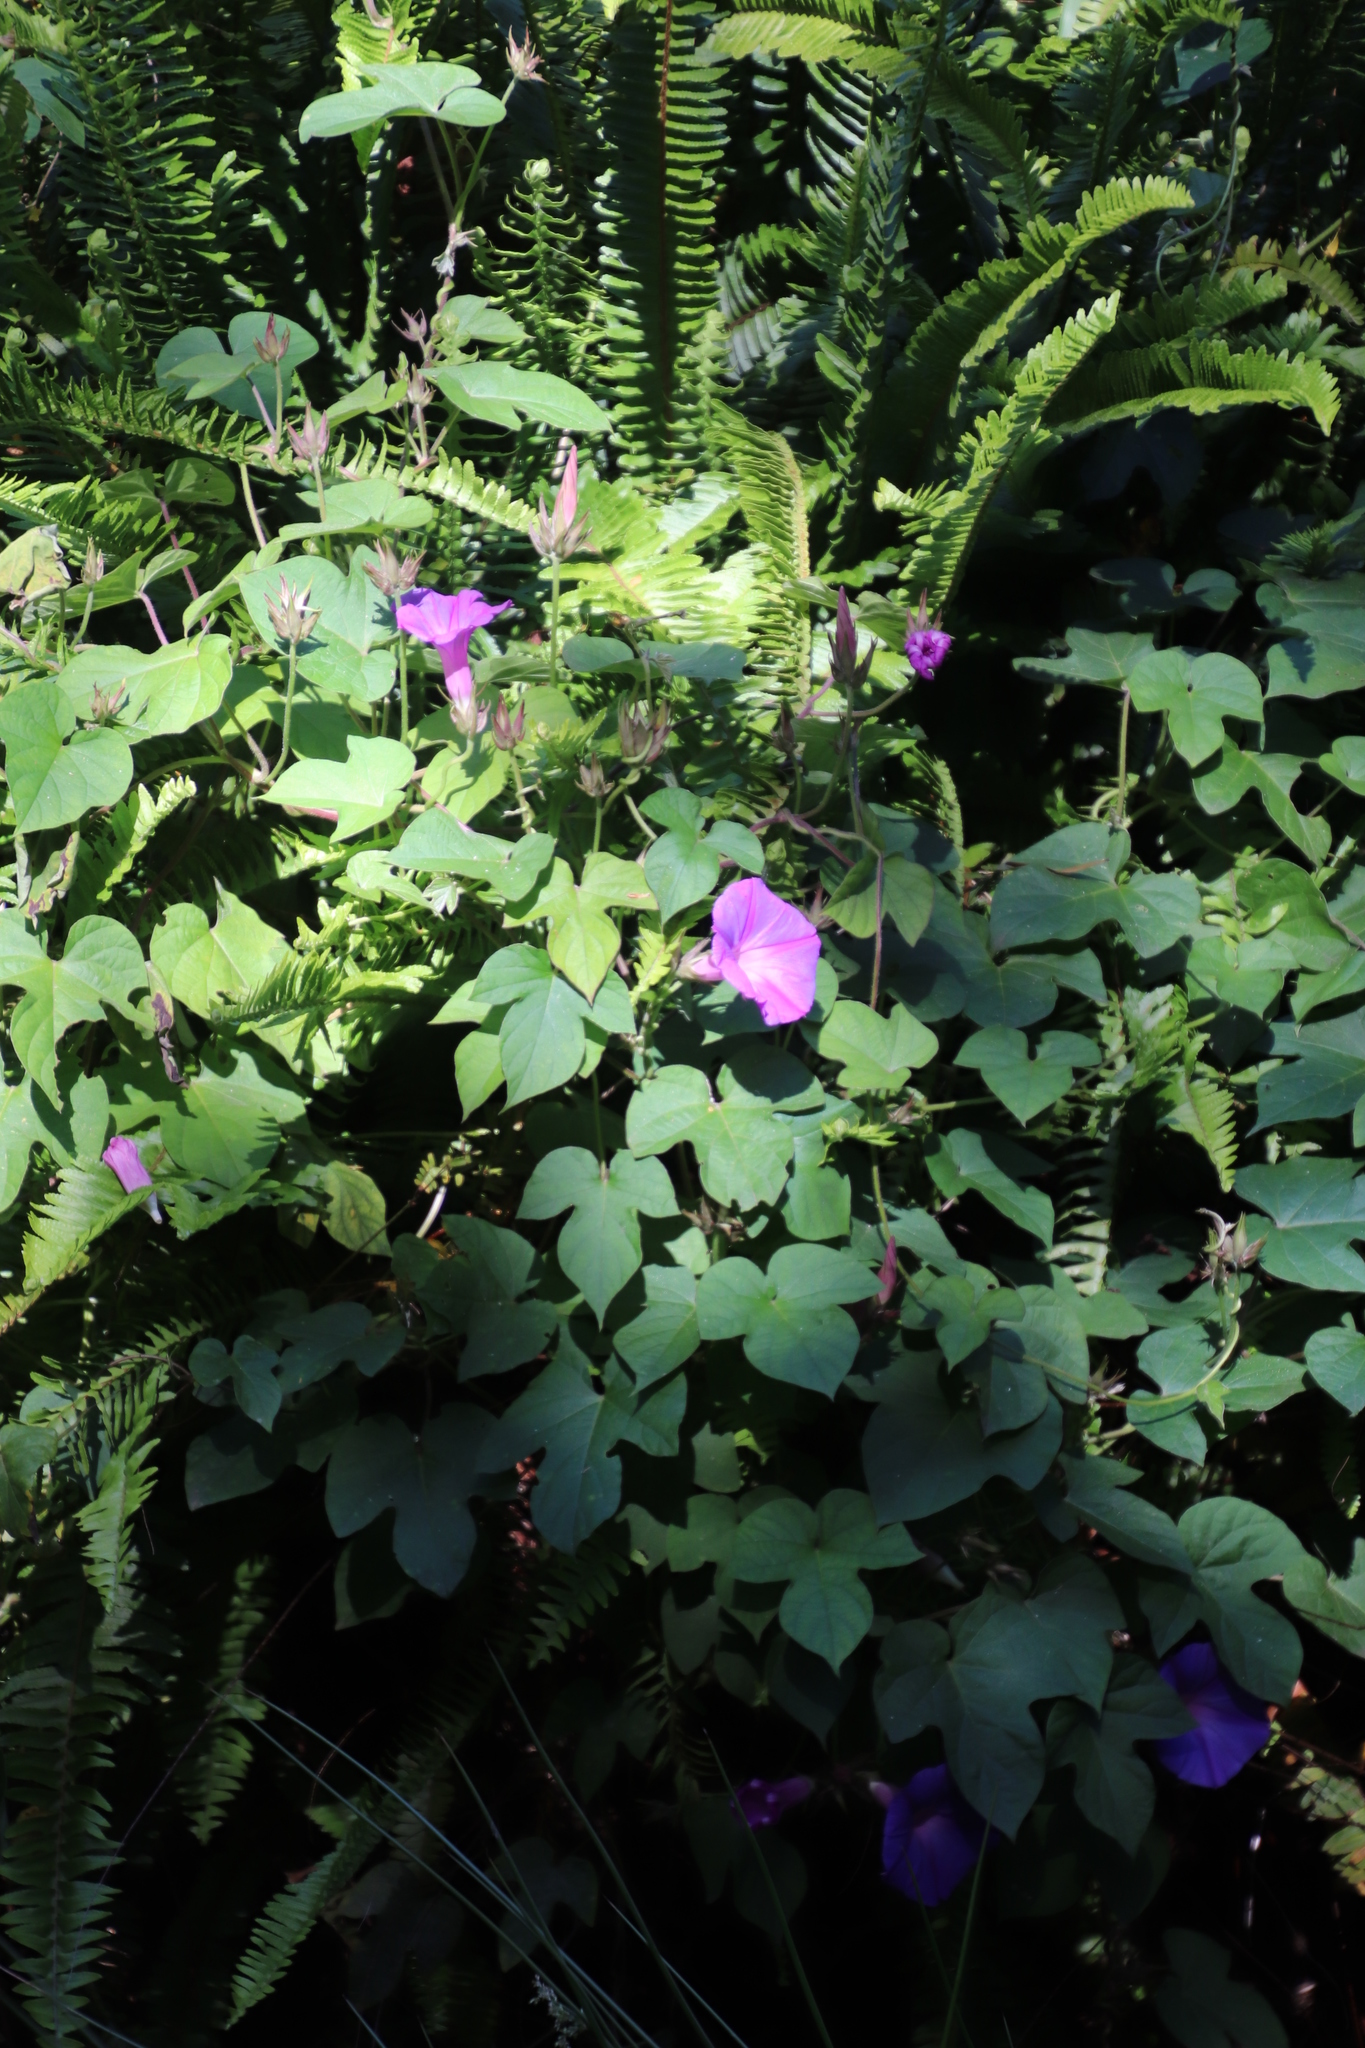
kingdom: Plantae
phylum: Tracheophyta
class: Magnoliopsida
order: Solanales
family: Convolvulaceae
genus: Ipomoea
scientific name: Ipomoea indica
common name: Blue dawnflower
